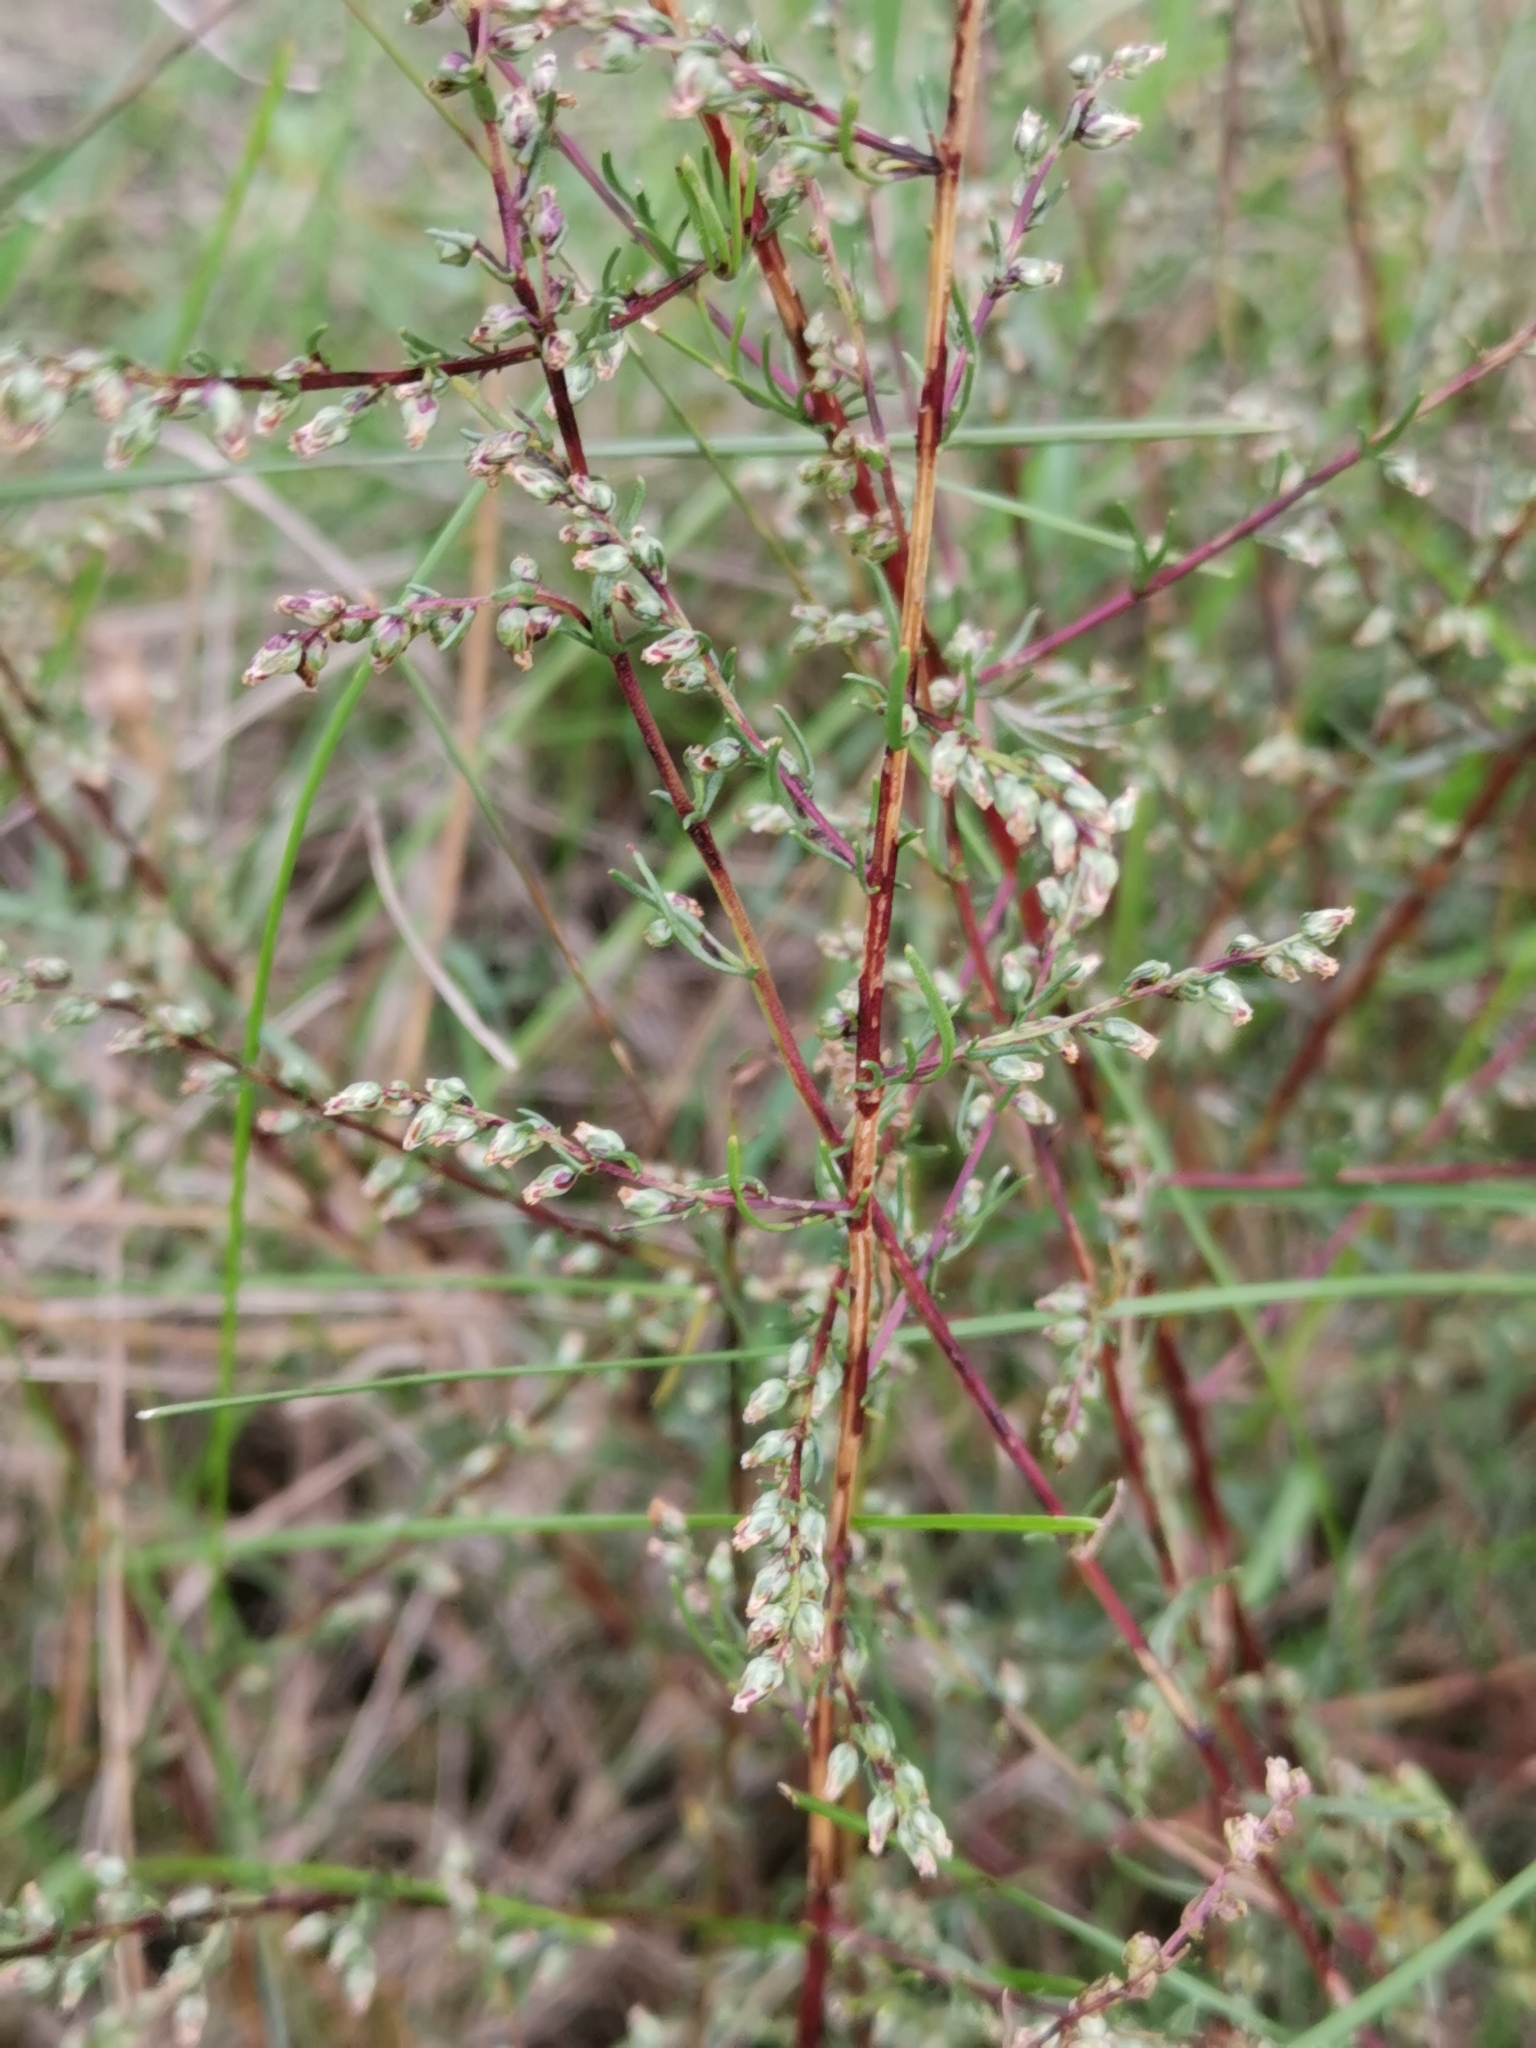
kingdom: Plantae
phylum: Tracheophyta
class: Magnoliopsida
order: Asterales
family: Asteraceae
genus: Artemisia
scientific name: Artemisia campestris
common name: Field wormwood
